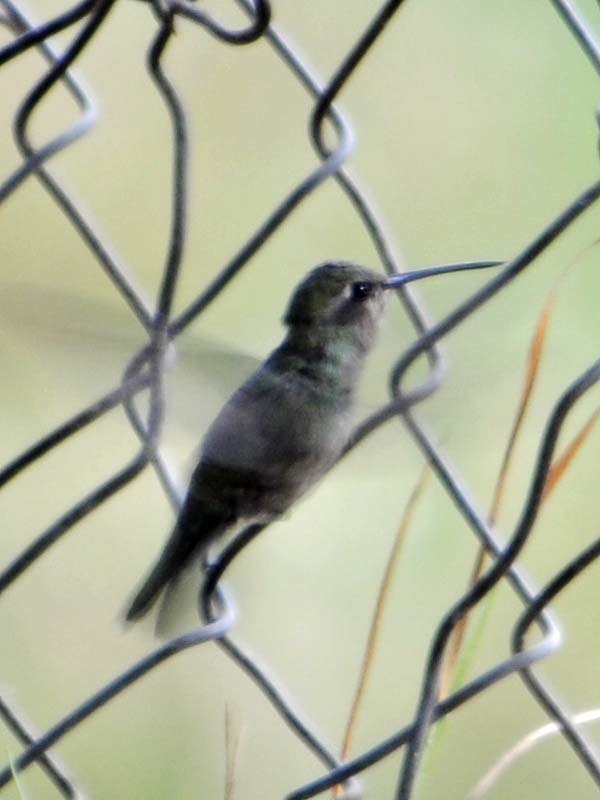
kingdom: Animalia
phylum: Chordata
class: Aves
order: Apodiformes
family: Trochilidae
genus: Cynanthus
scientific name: Cynanthus latirostris
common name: Broad-billed hummingbird
